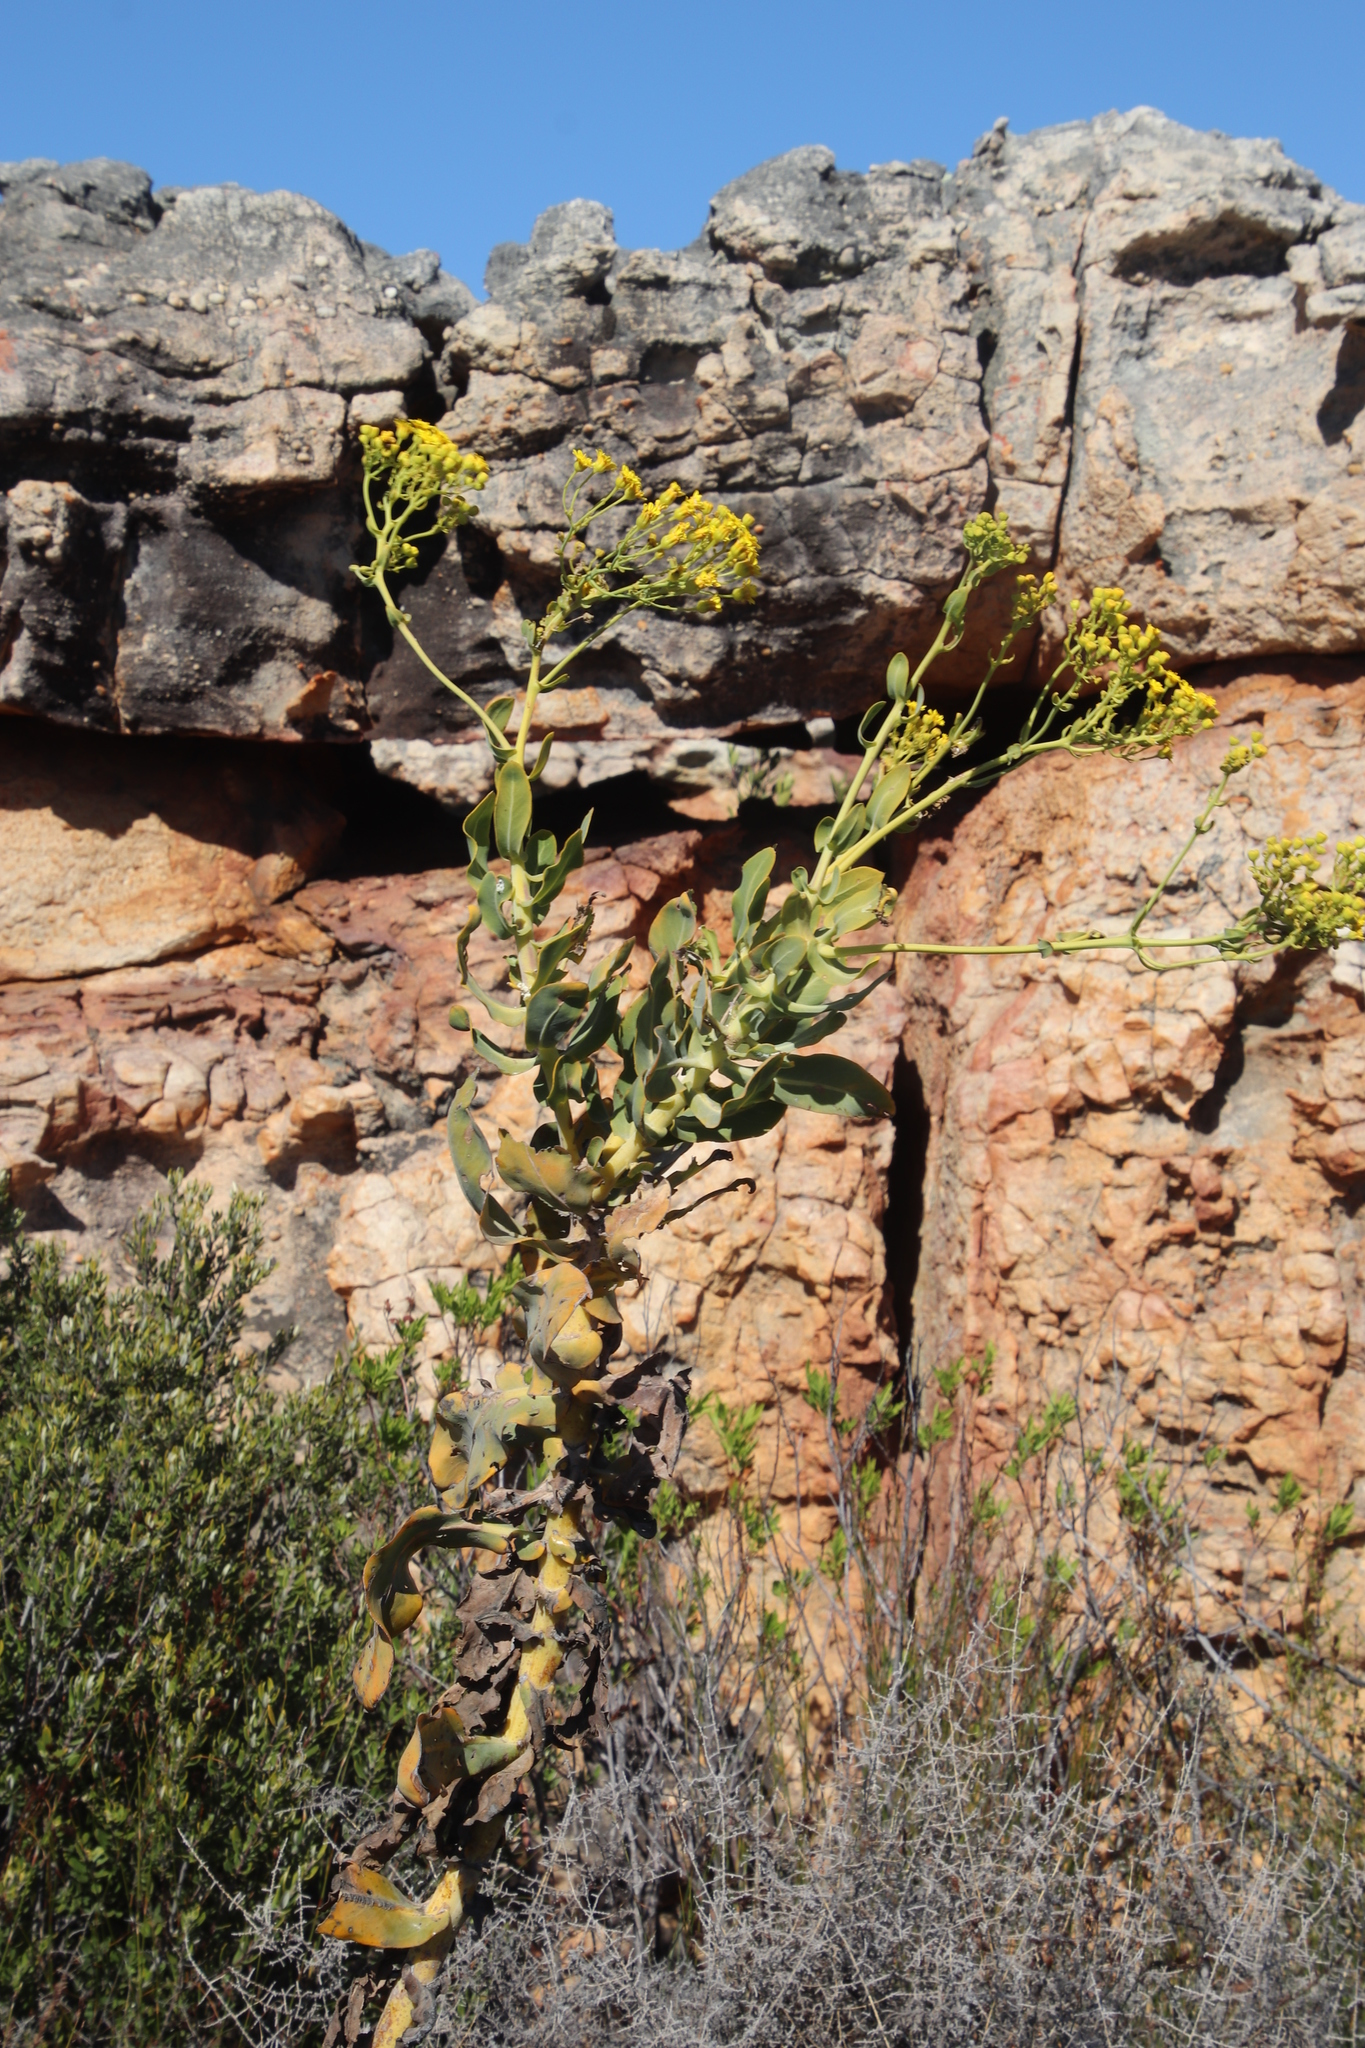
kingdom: Plantae
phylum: Tracheophyta
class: Magnoliopsida
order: Asterales
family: Asteraceae
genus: Othonna
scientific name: Othonna parviflora
